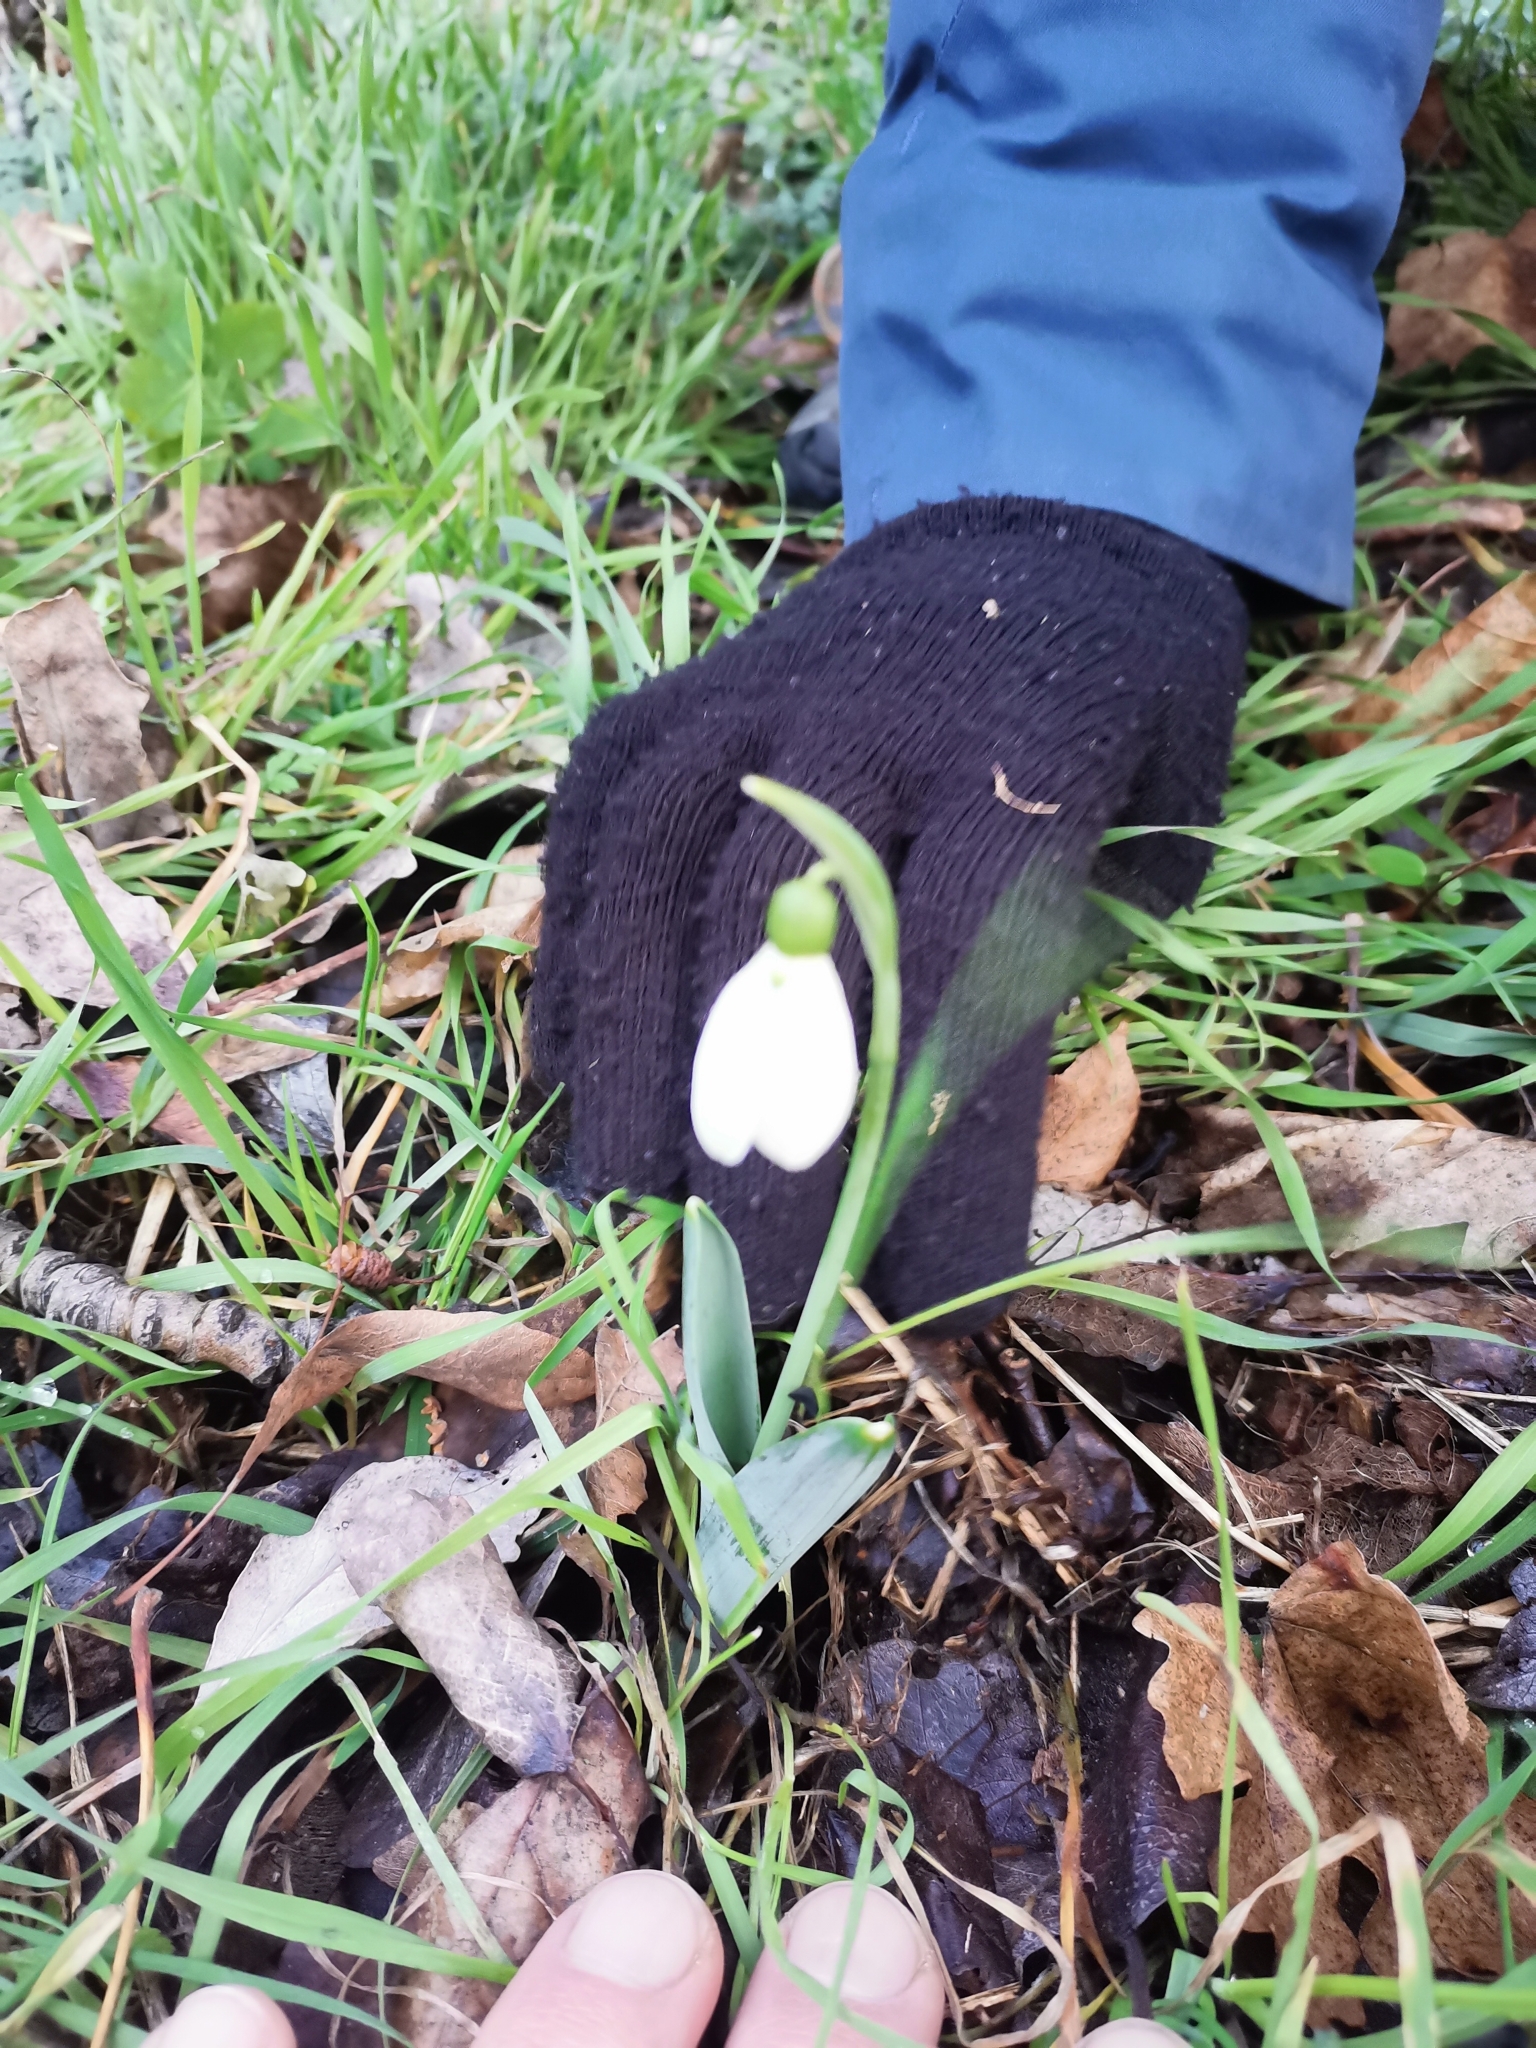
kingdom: Plantae
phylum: Tracheophyta
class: Liliopsida
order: Asparagales
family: Amaryllidaceae
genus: Galanthus
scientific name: Galanthus nivalis
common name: Snowdrop
